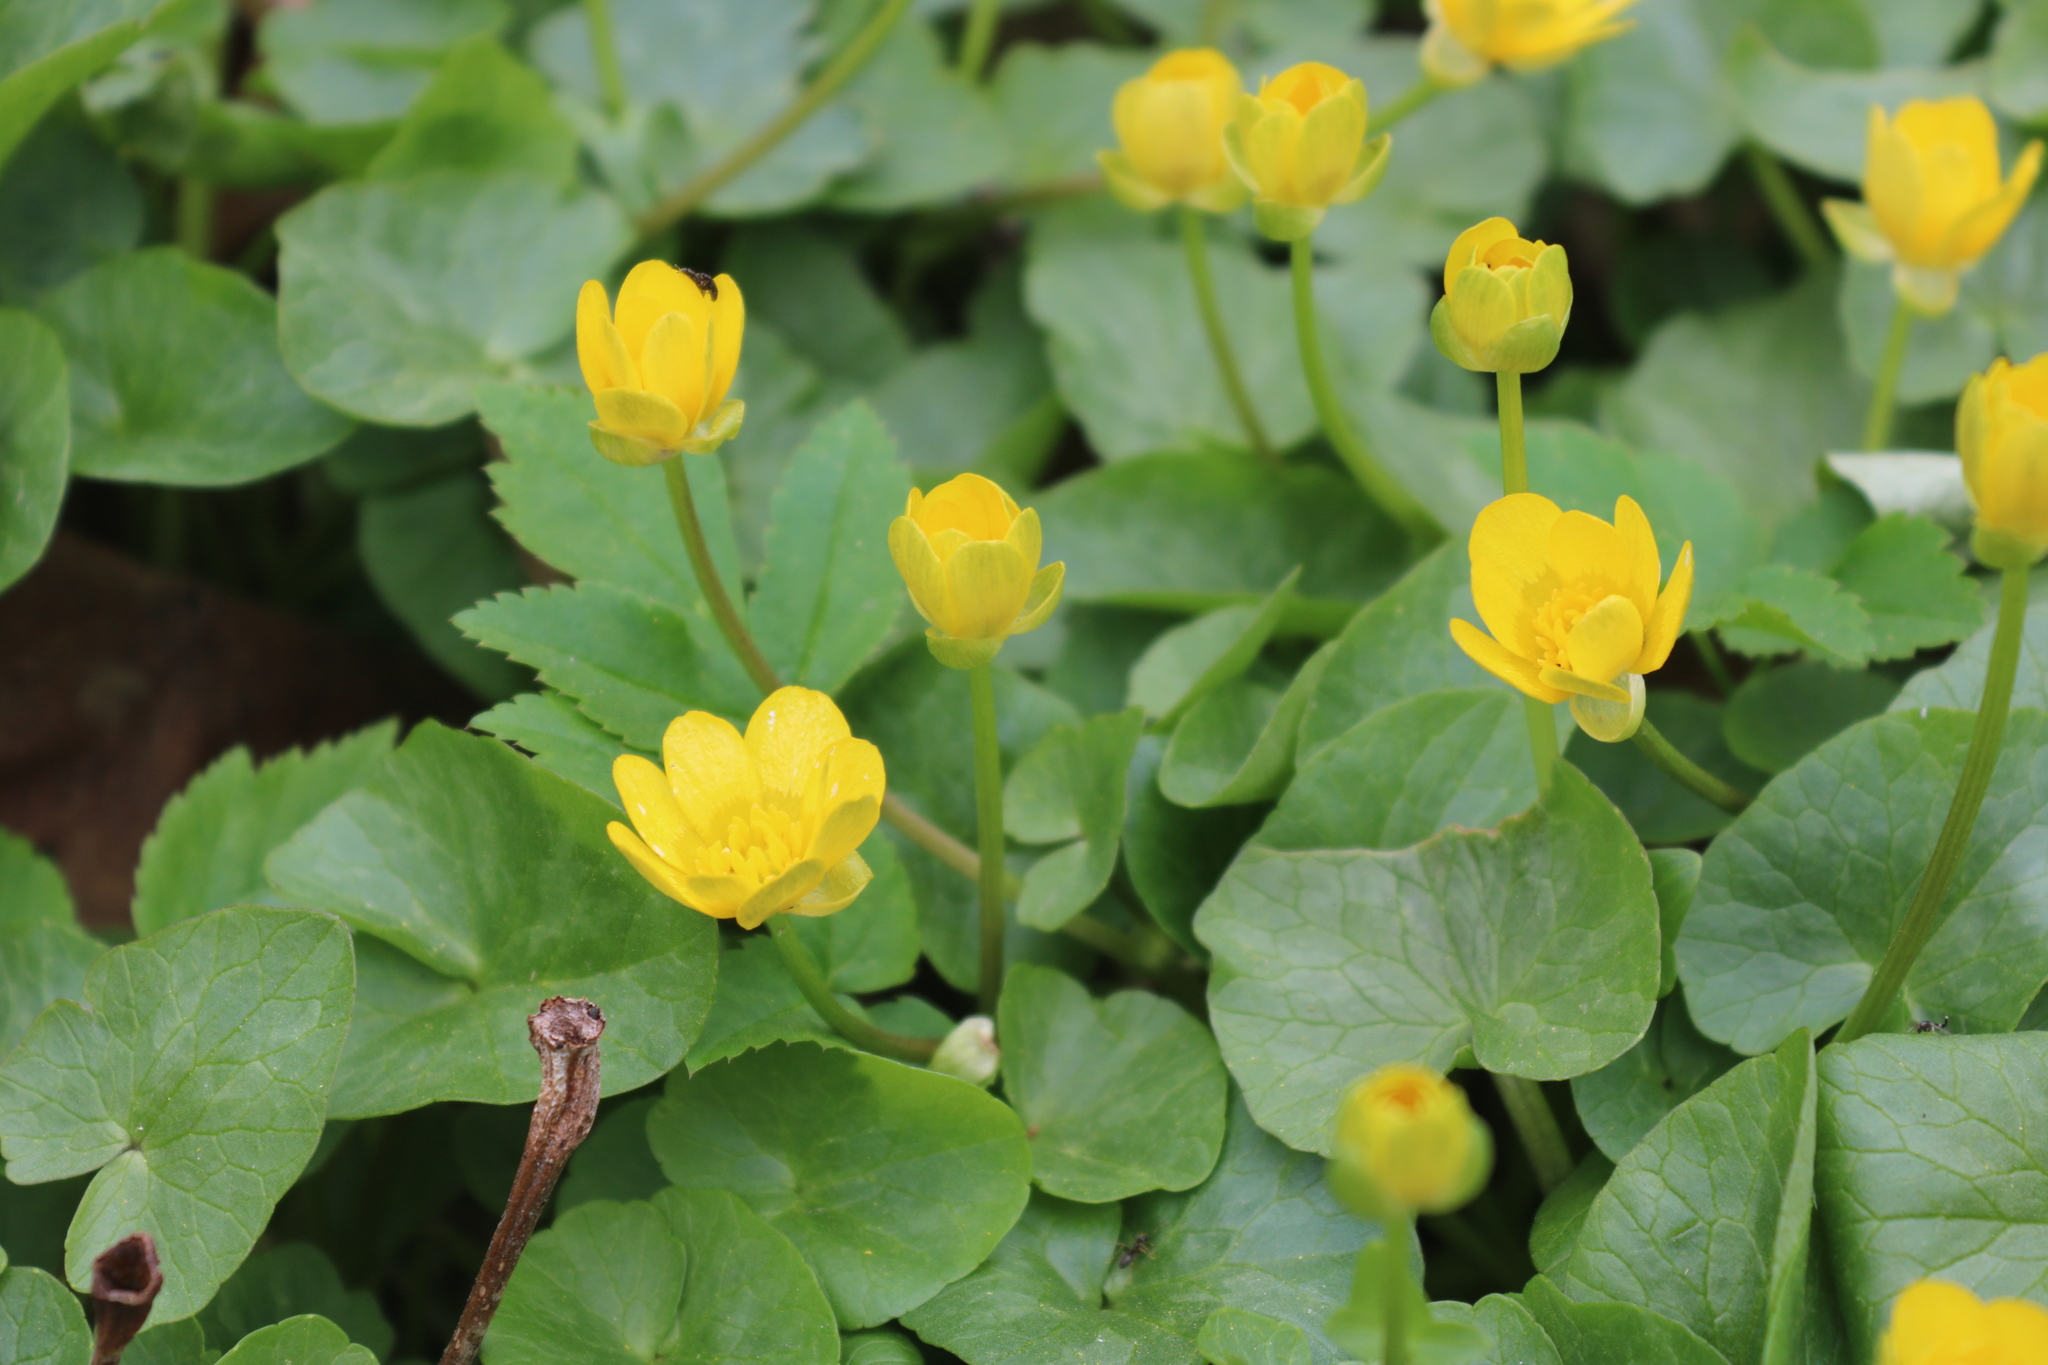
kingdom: Plantae
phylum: Tracheophyta
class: Magnoliopsida
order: Ranunculales
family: Ranunculaceae
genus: Ficaria
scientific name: Ficaria verna
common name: Lesser celandine
